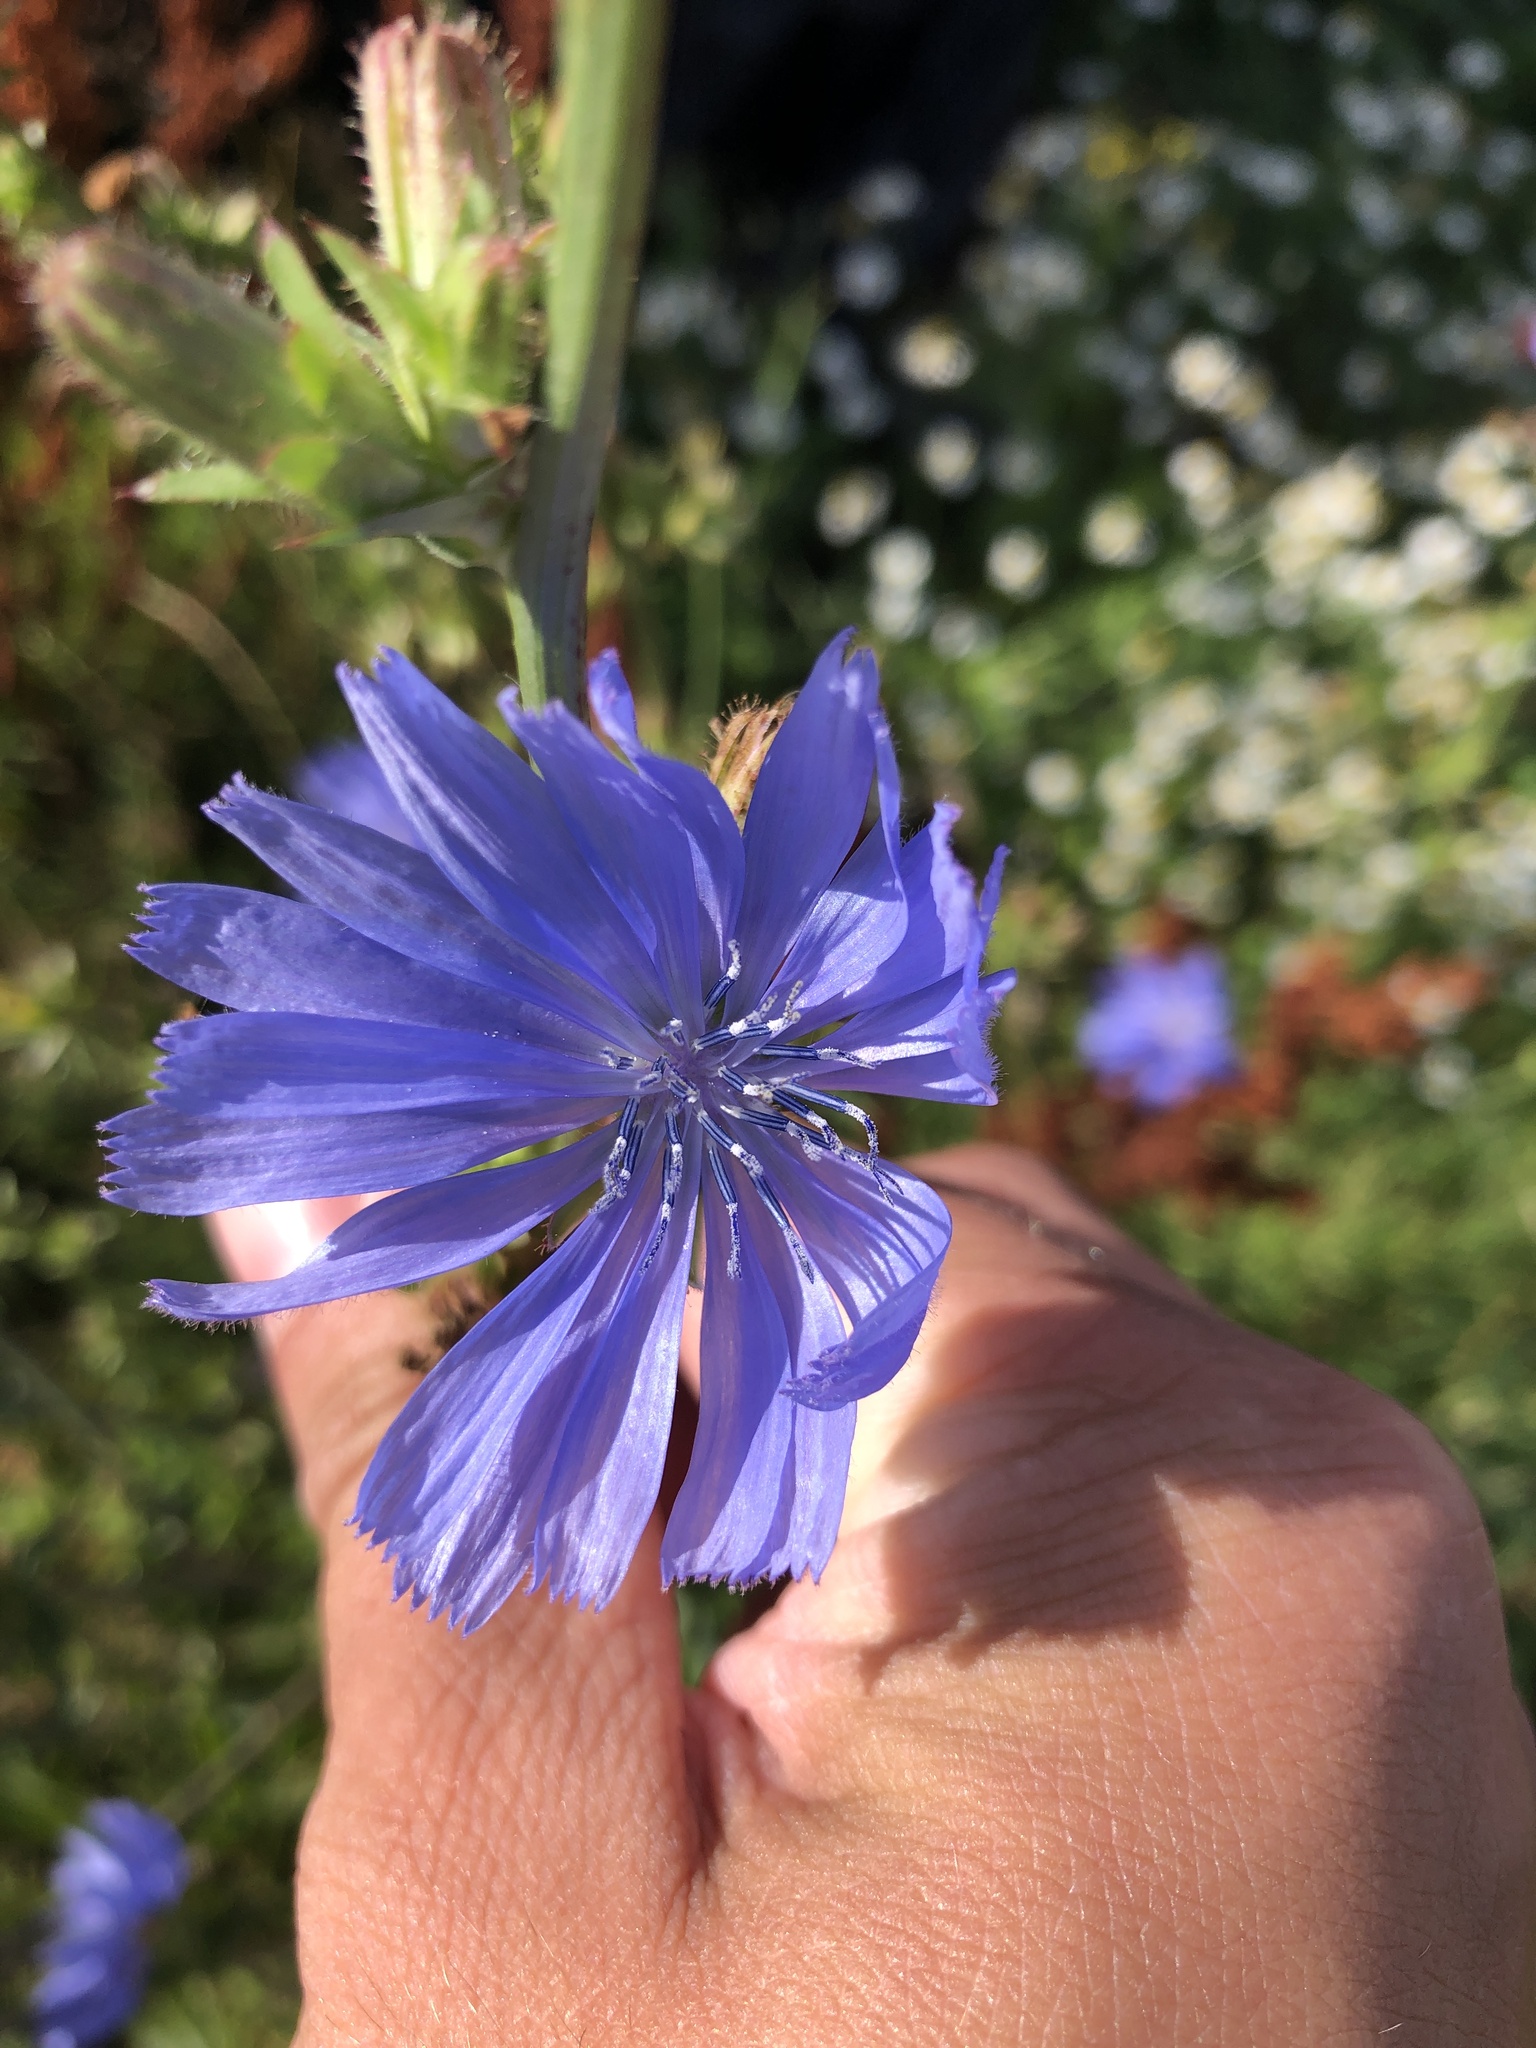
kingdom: Plantae
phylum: Tracheophyta
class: Magnoliopsida
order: Asterales
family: Asteraceae
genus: Cichorium
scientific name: Cichorium intybus
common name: Chicory
